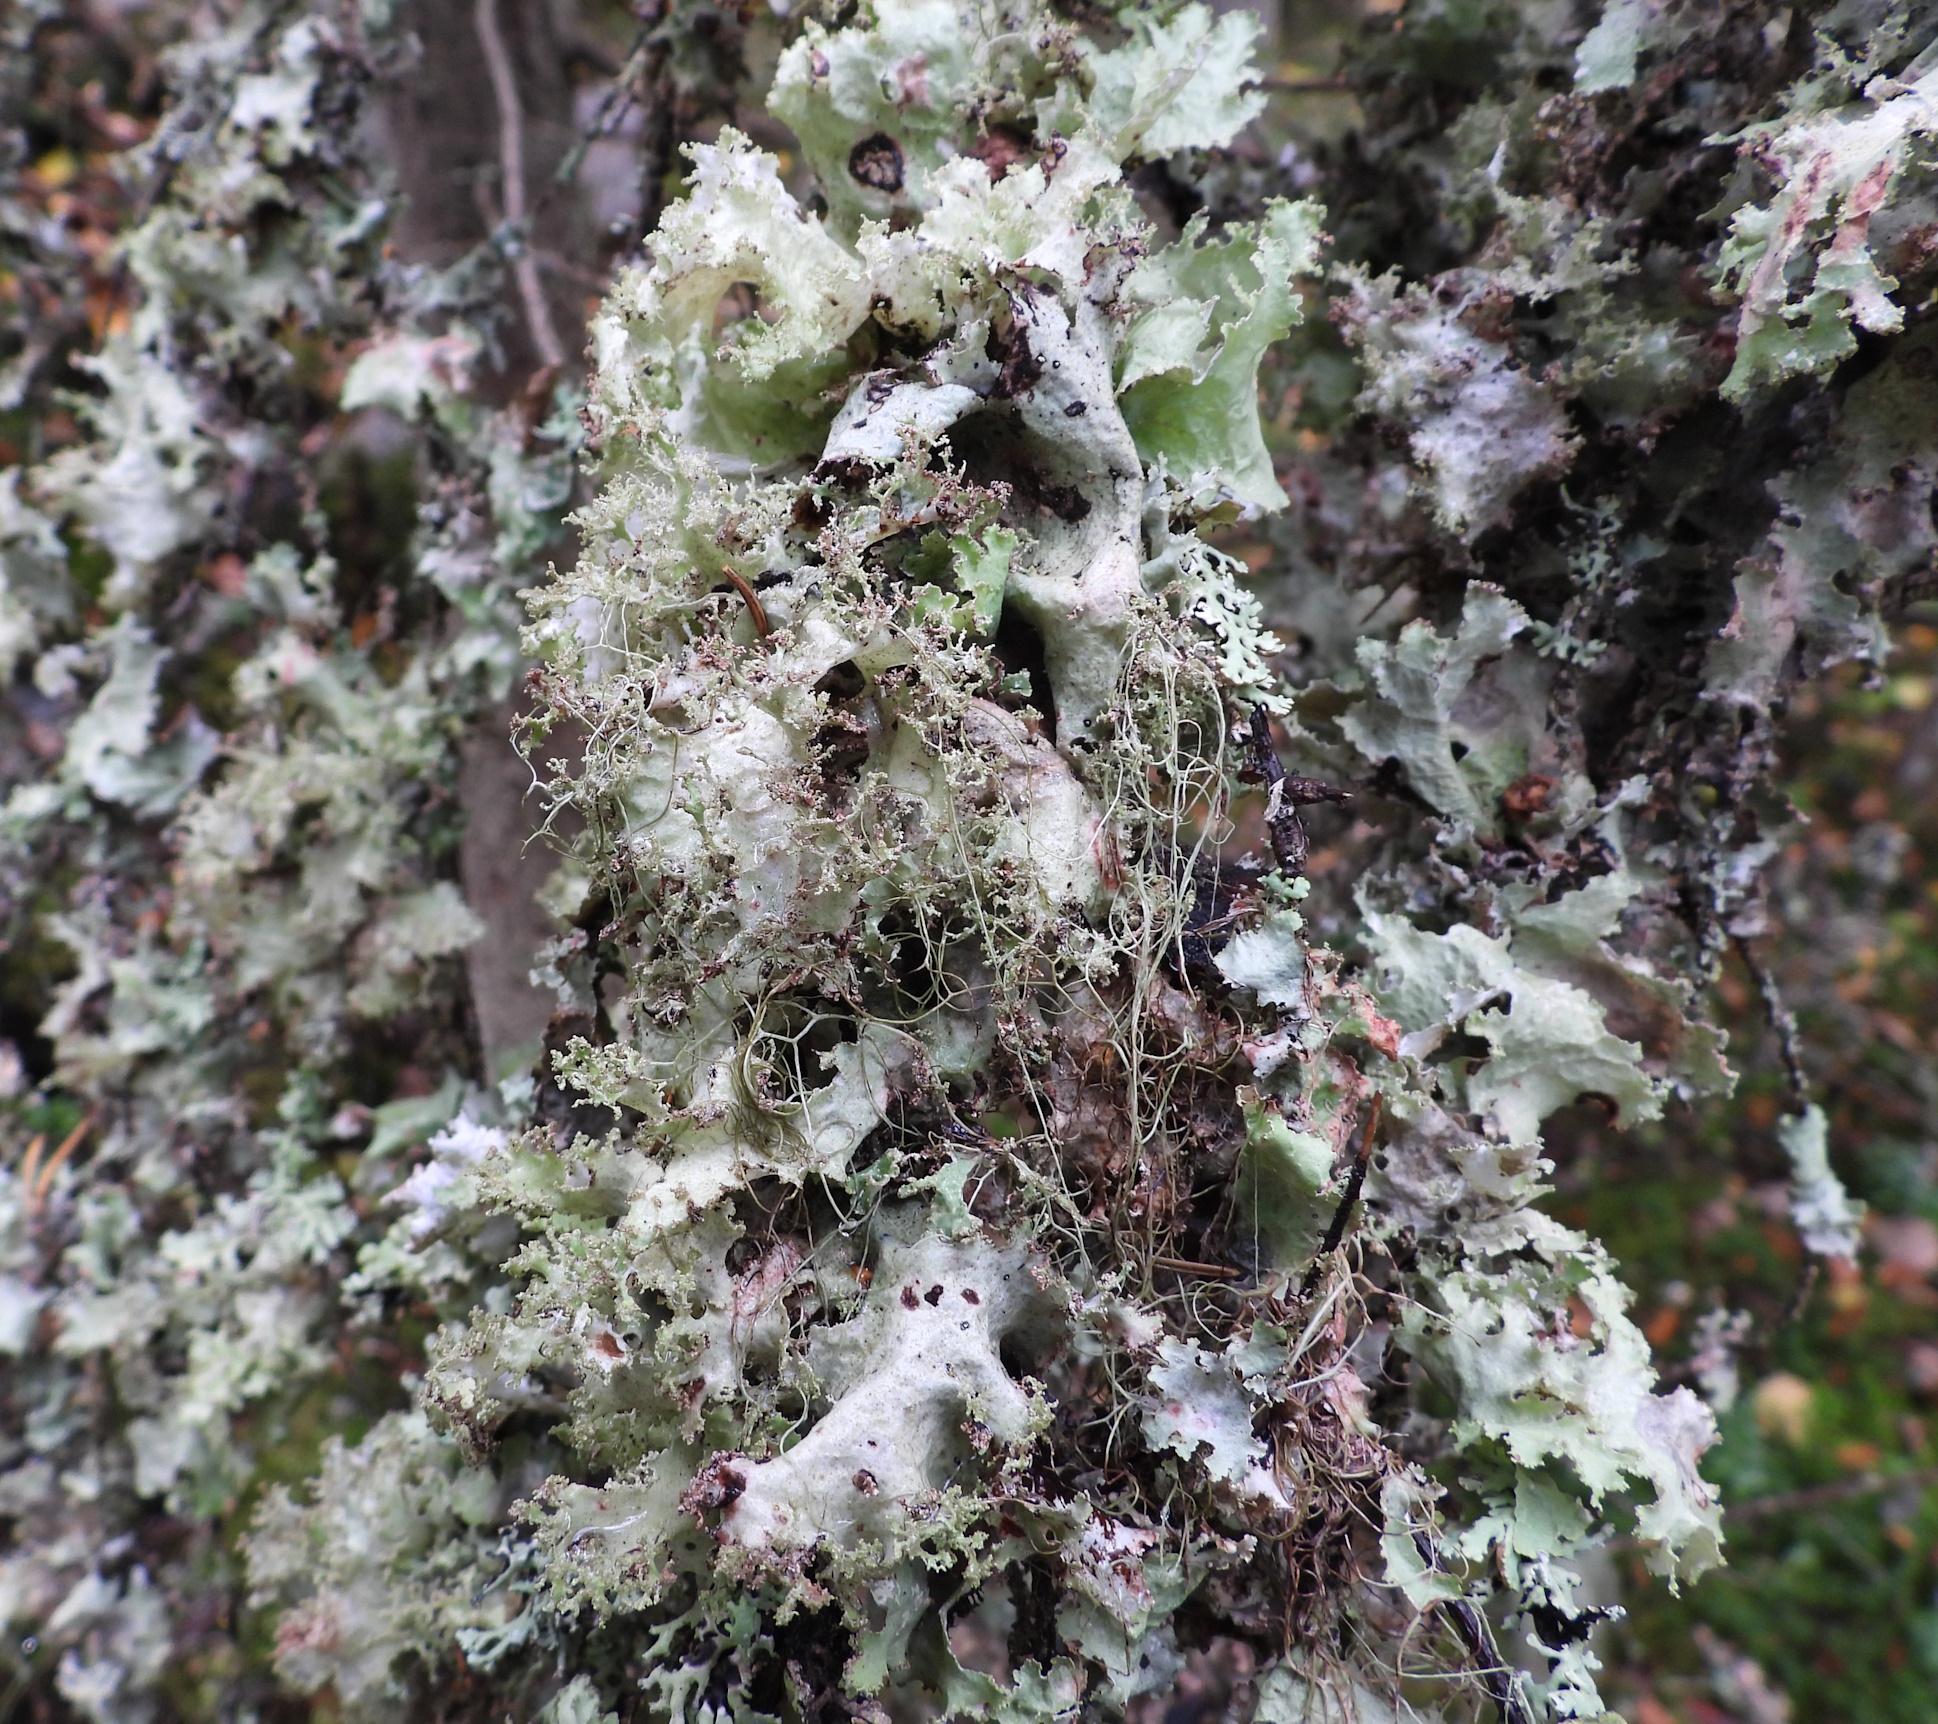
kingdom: Fungi
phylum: Ascomycota
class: Lecanoromycetes
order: Lecanorales
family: Parmeliaceae
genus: Platismatia
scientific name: Platismatia glauca
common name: Varied rag lichen
